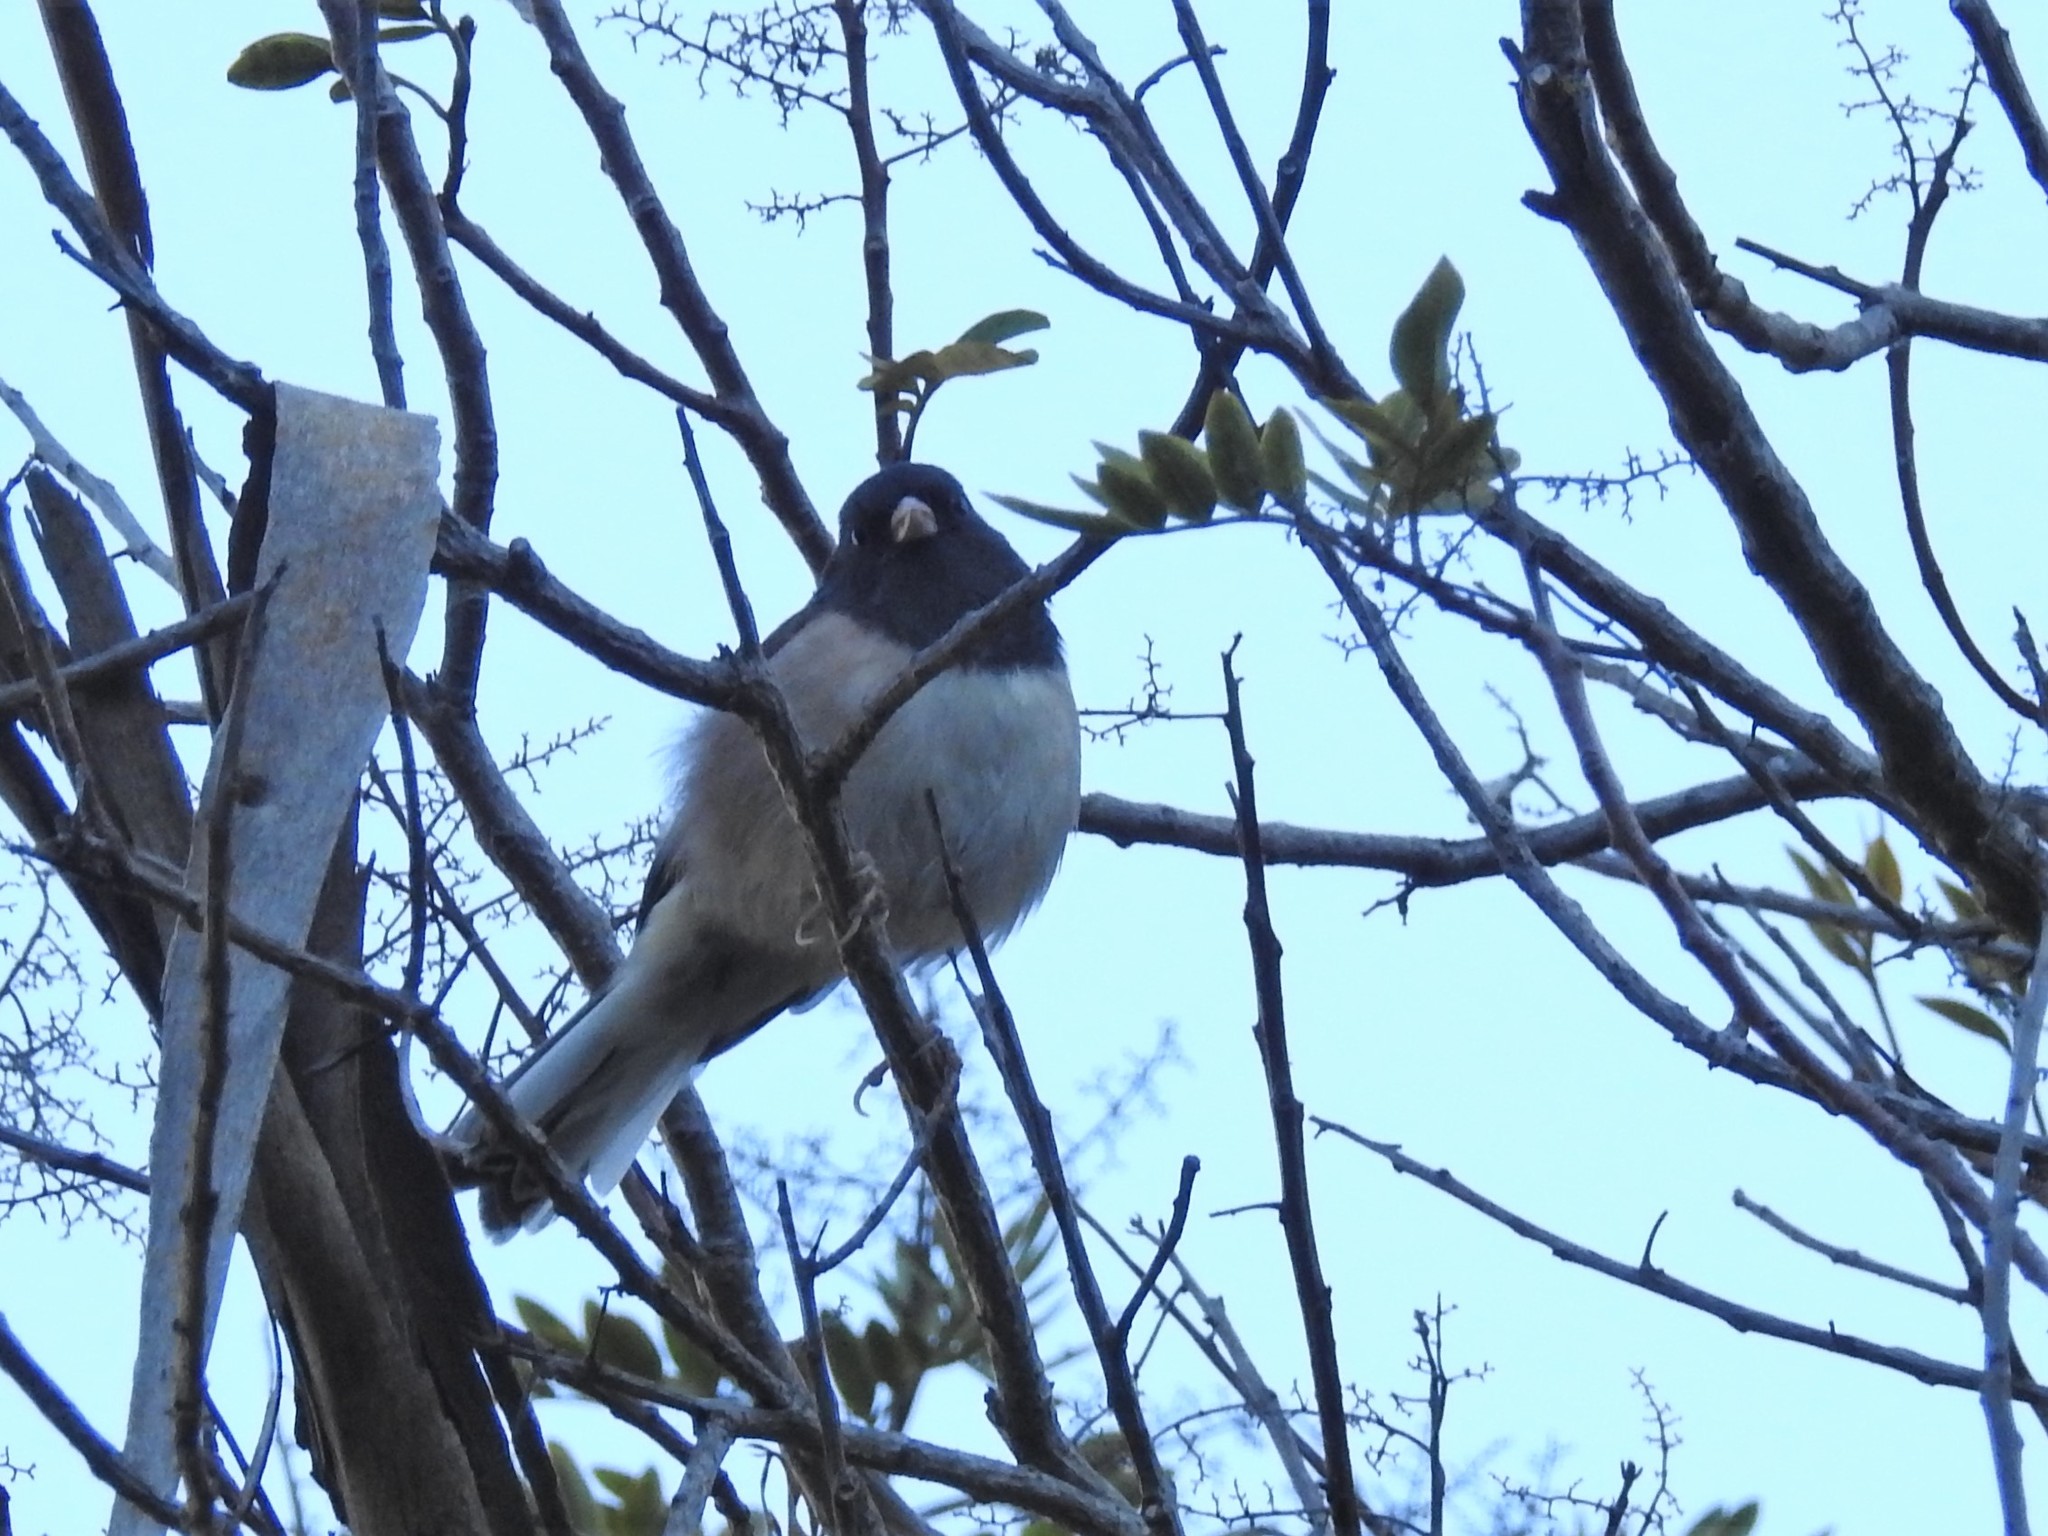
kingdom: Animalia
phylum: Chordata
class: Aves
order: Passeriformes
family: Passerellidae
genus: Junco
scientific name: Junco hyemalis
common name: Dark-eyed junco
